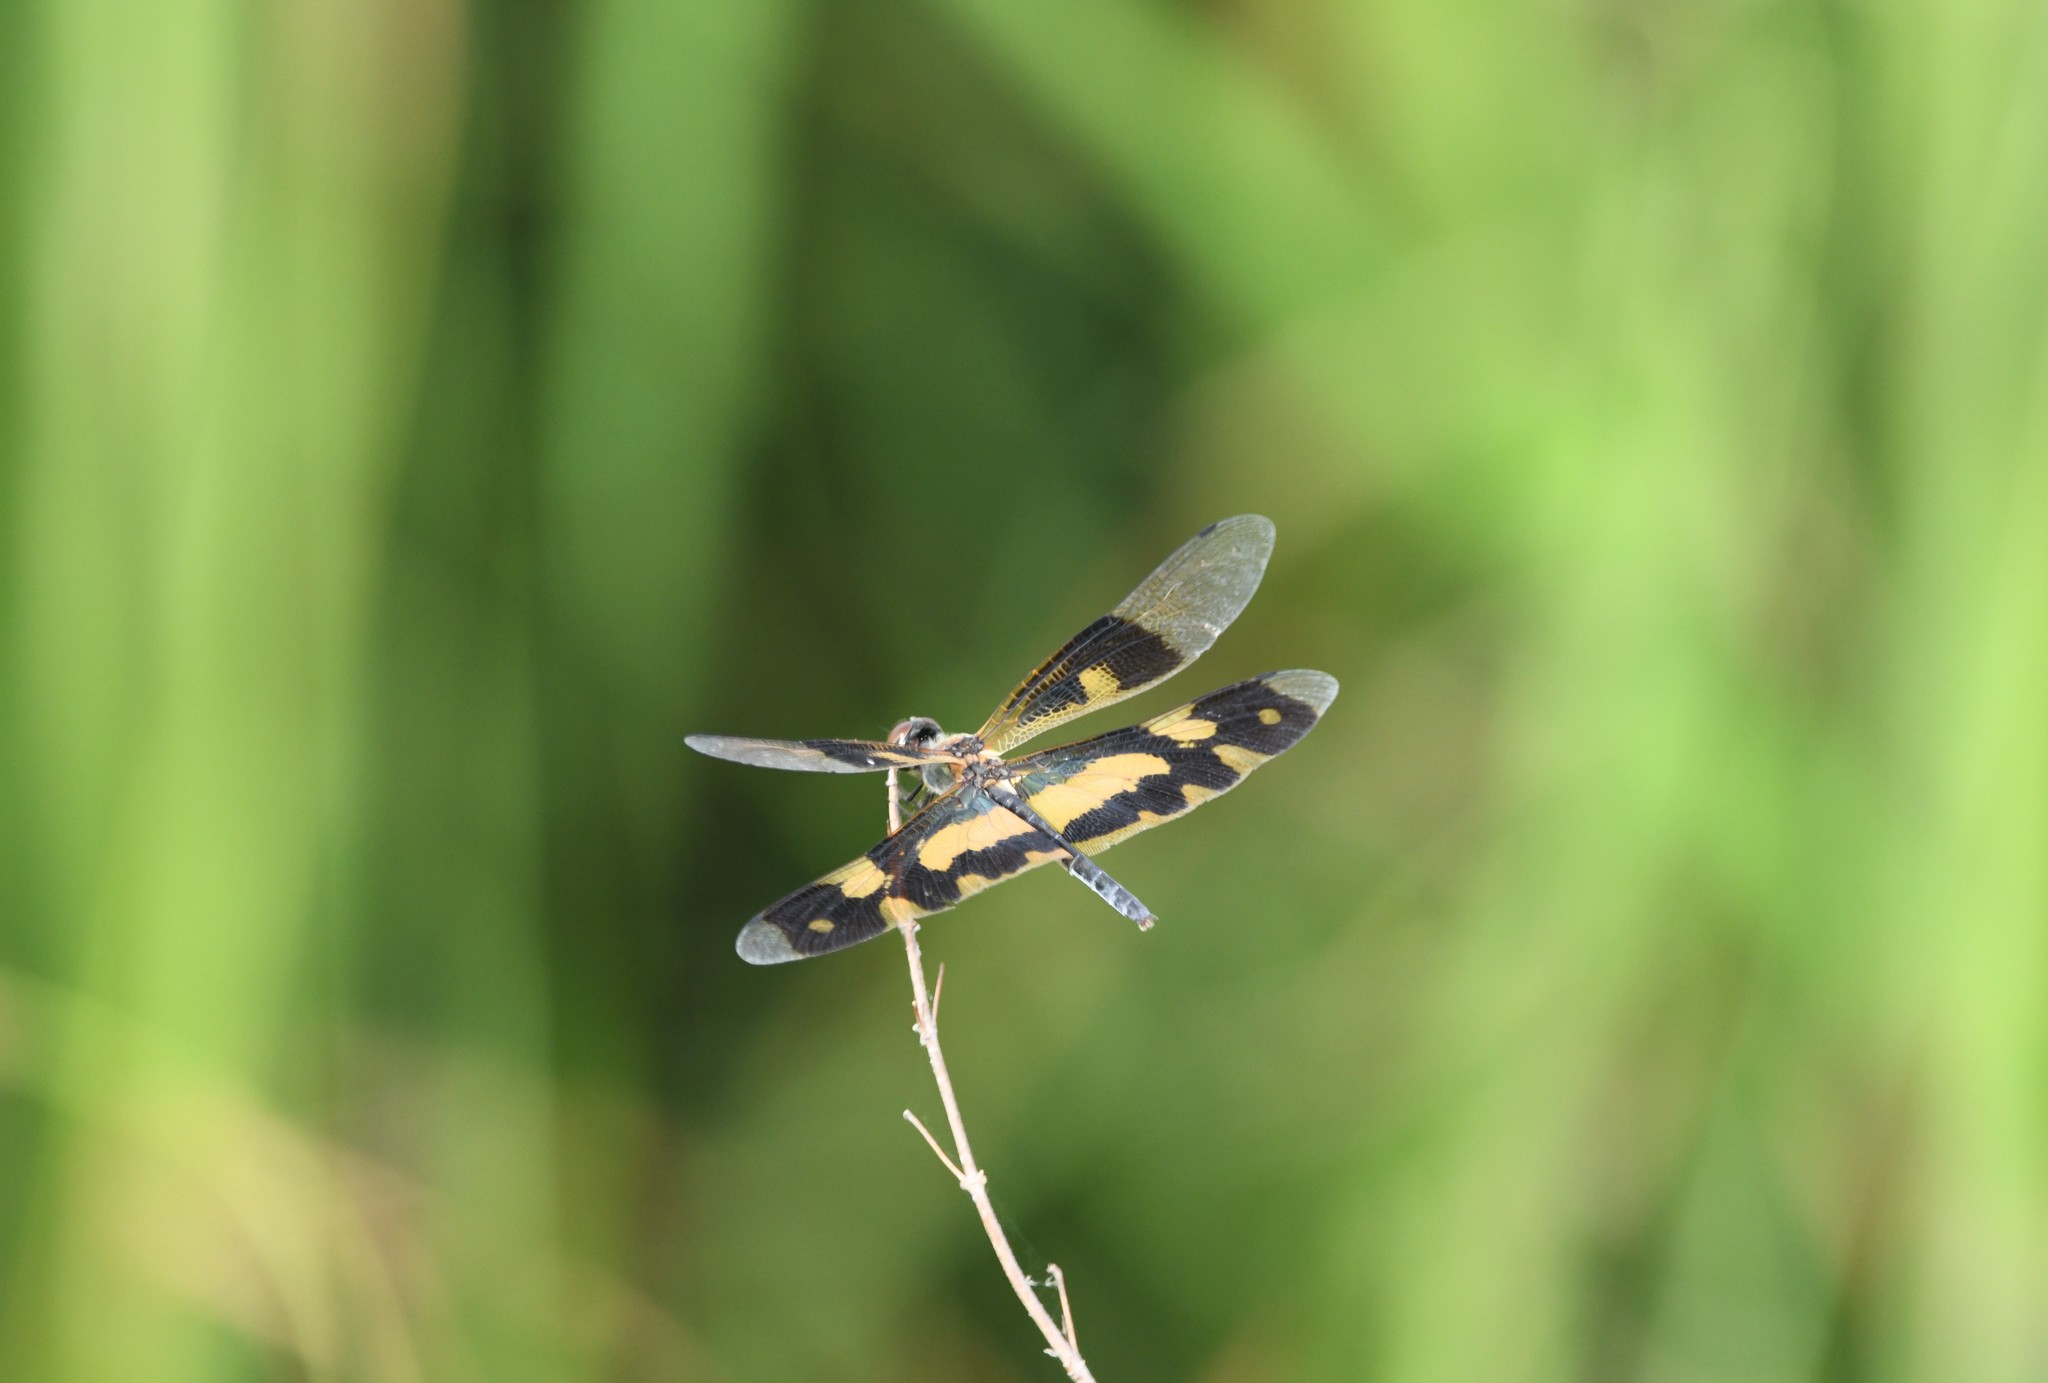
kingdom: Animalia
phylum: Arthropoda
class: Insecta
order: Odonata
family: Libellulidae
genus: Rhyothemis
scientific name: Rhyothemis variegata
